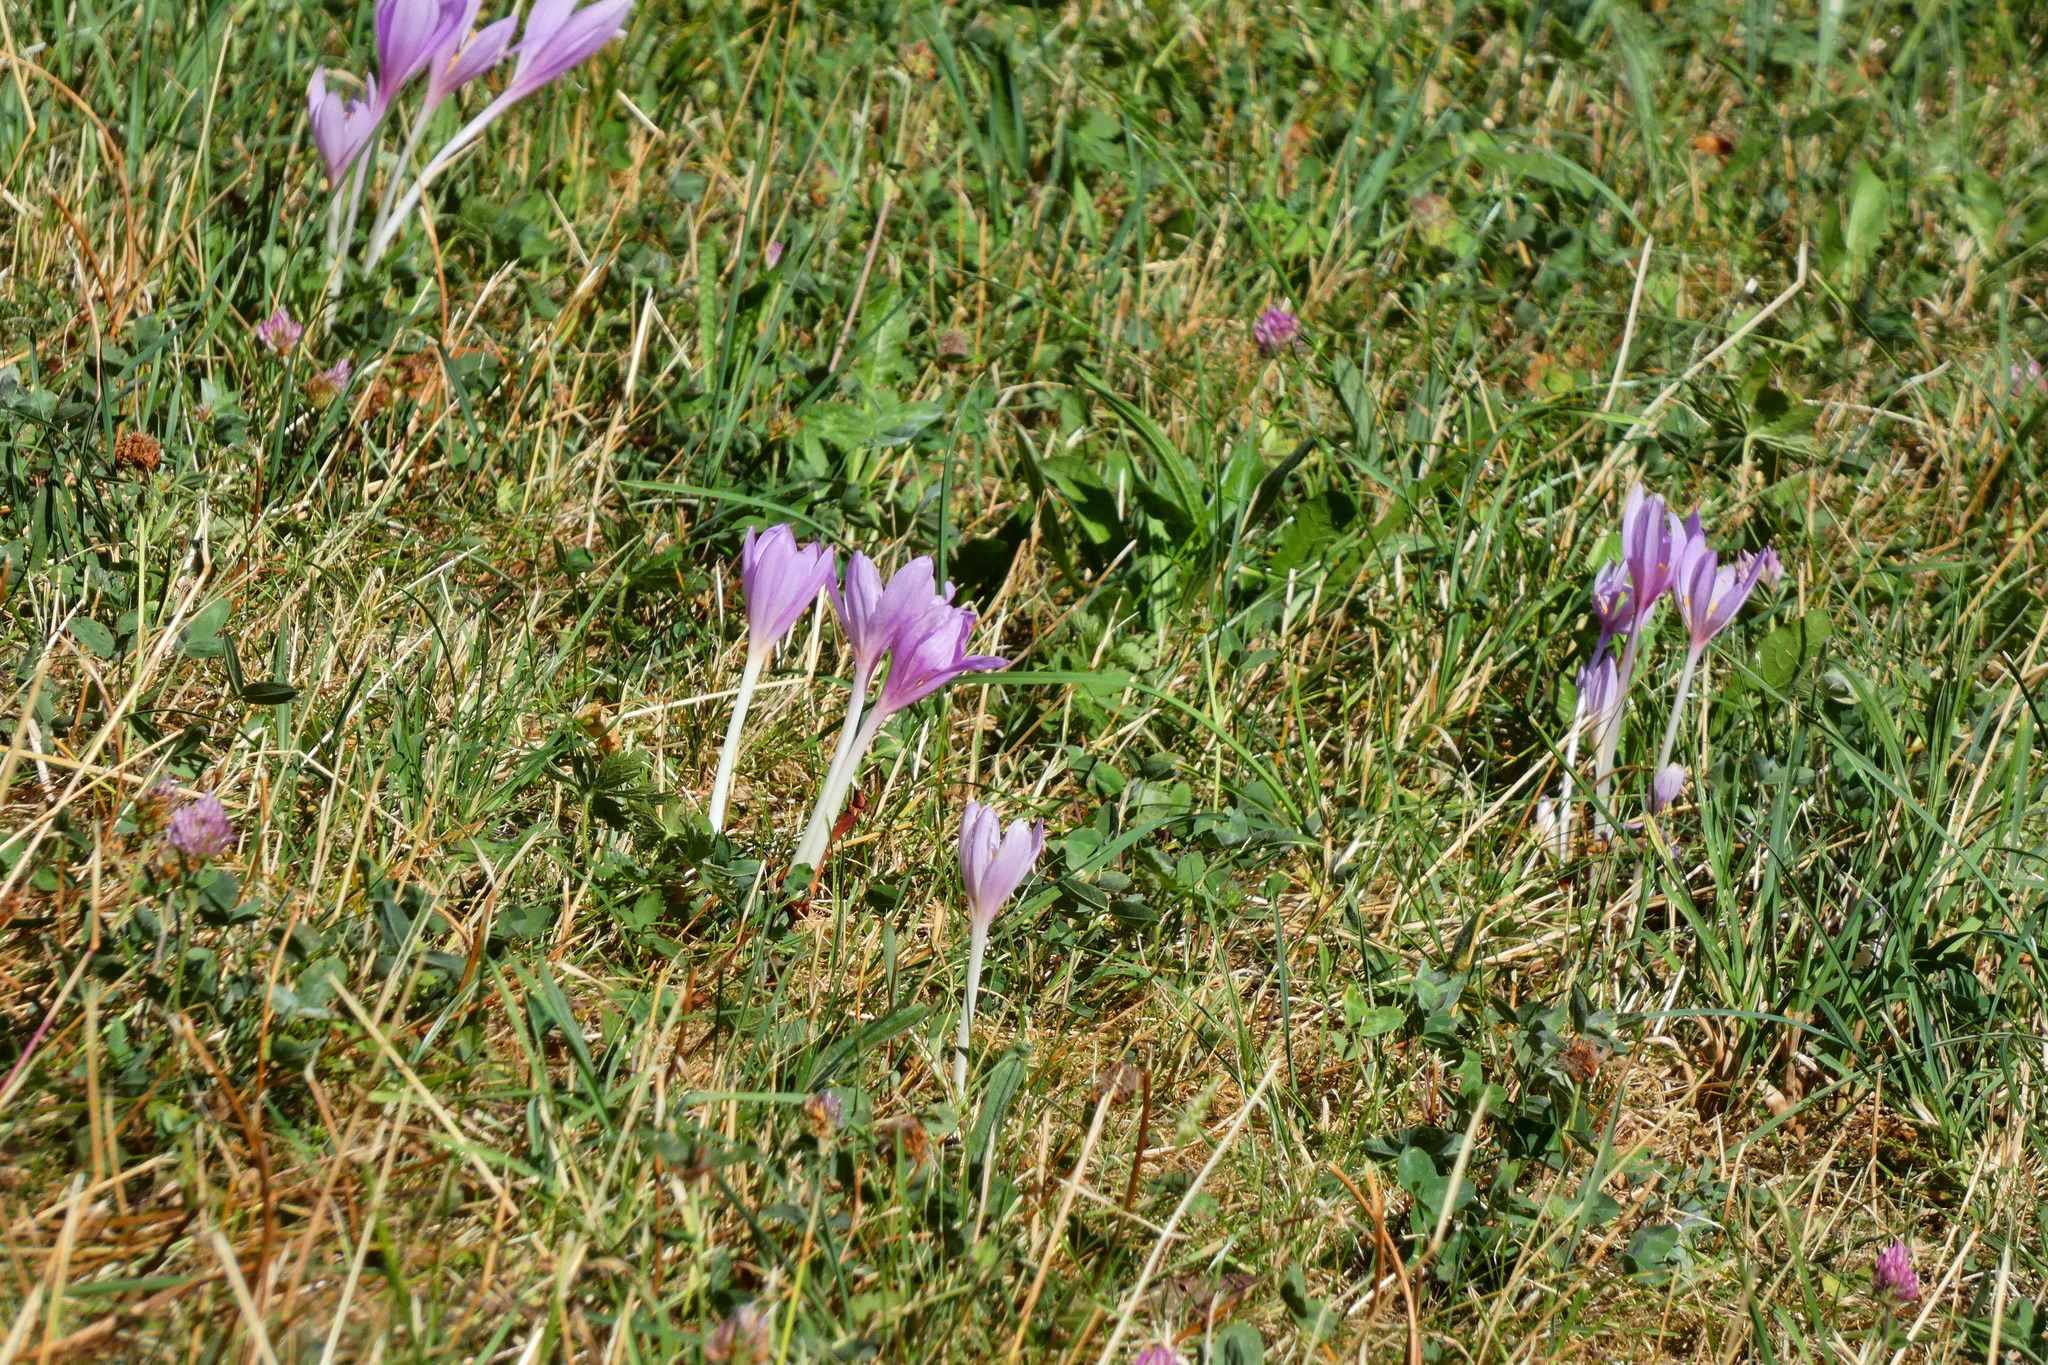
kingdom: Plantae
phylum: Tracheophyta
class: Liliopsida
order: Liliales
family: Colchicaceae
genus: Colchicum
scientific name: Colchicum autumnale
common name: Autumn crocus
